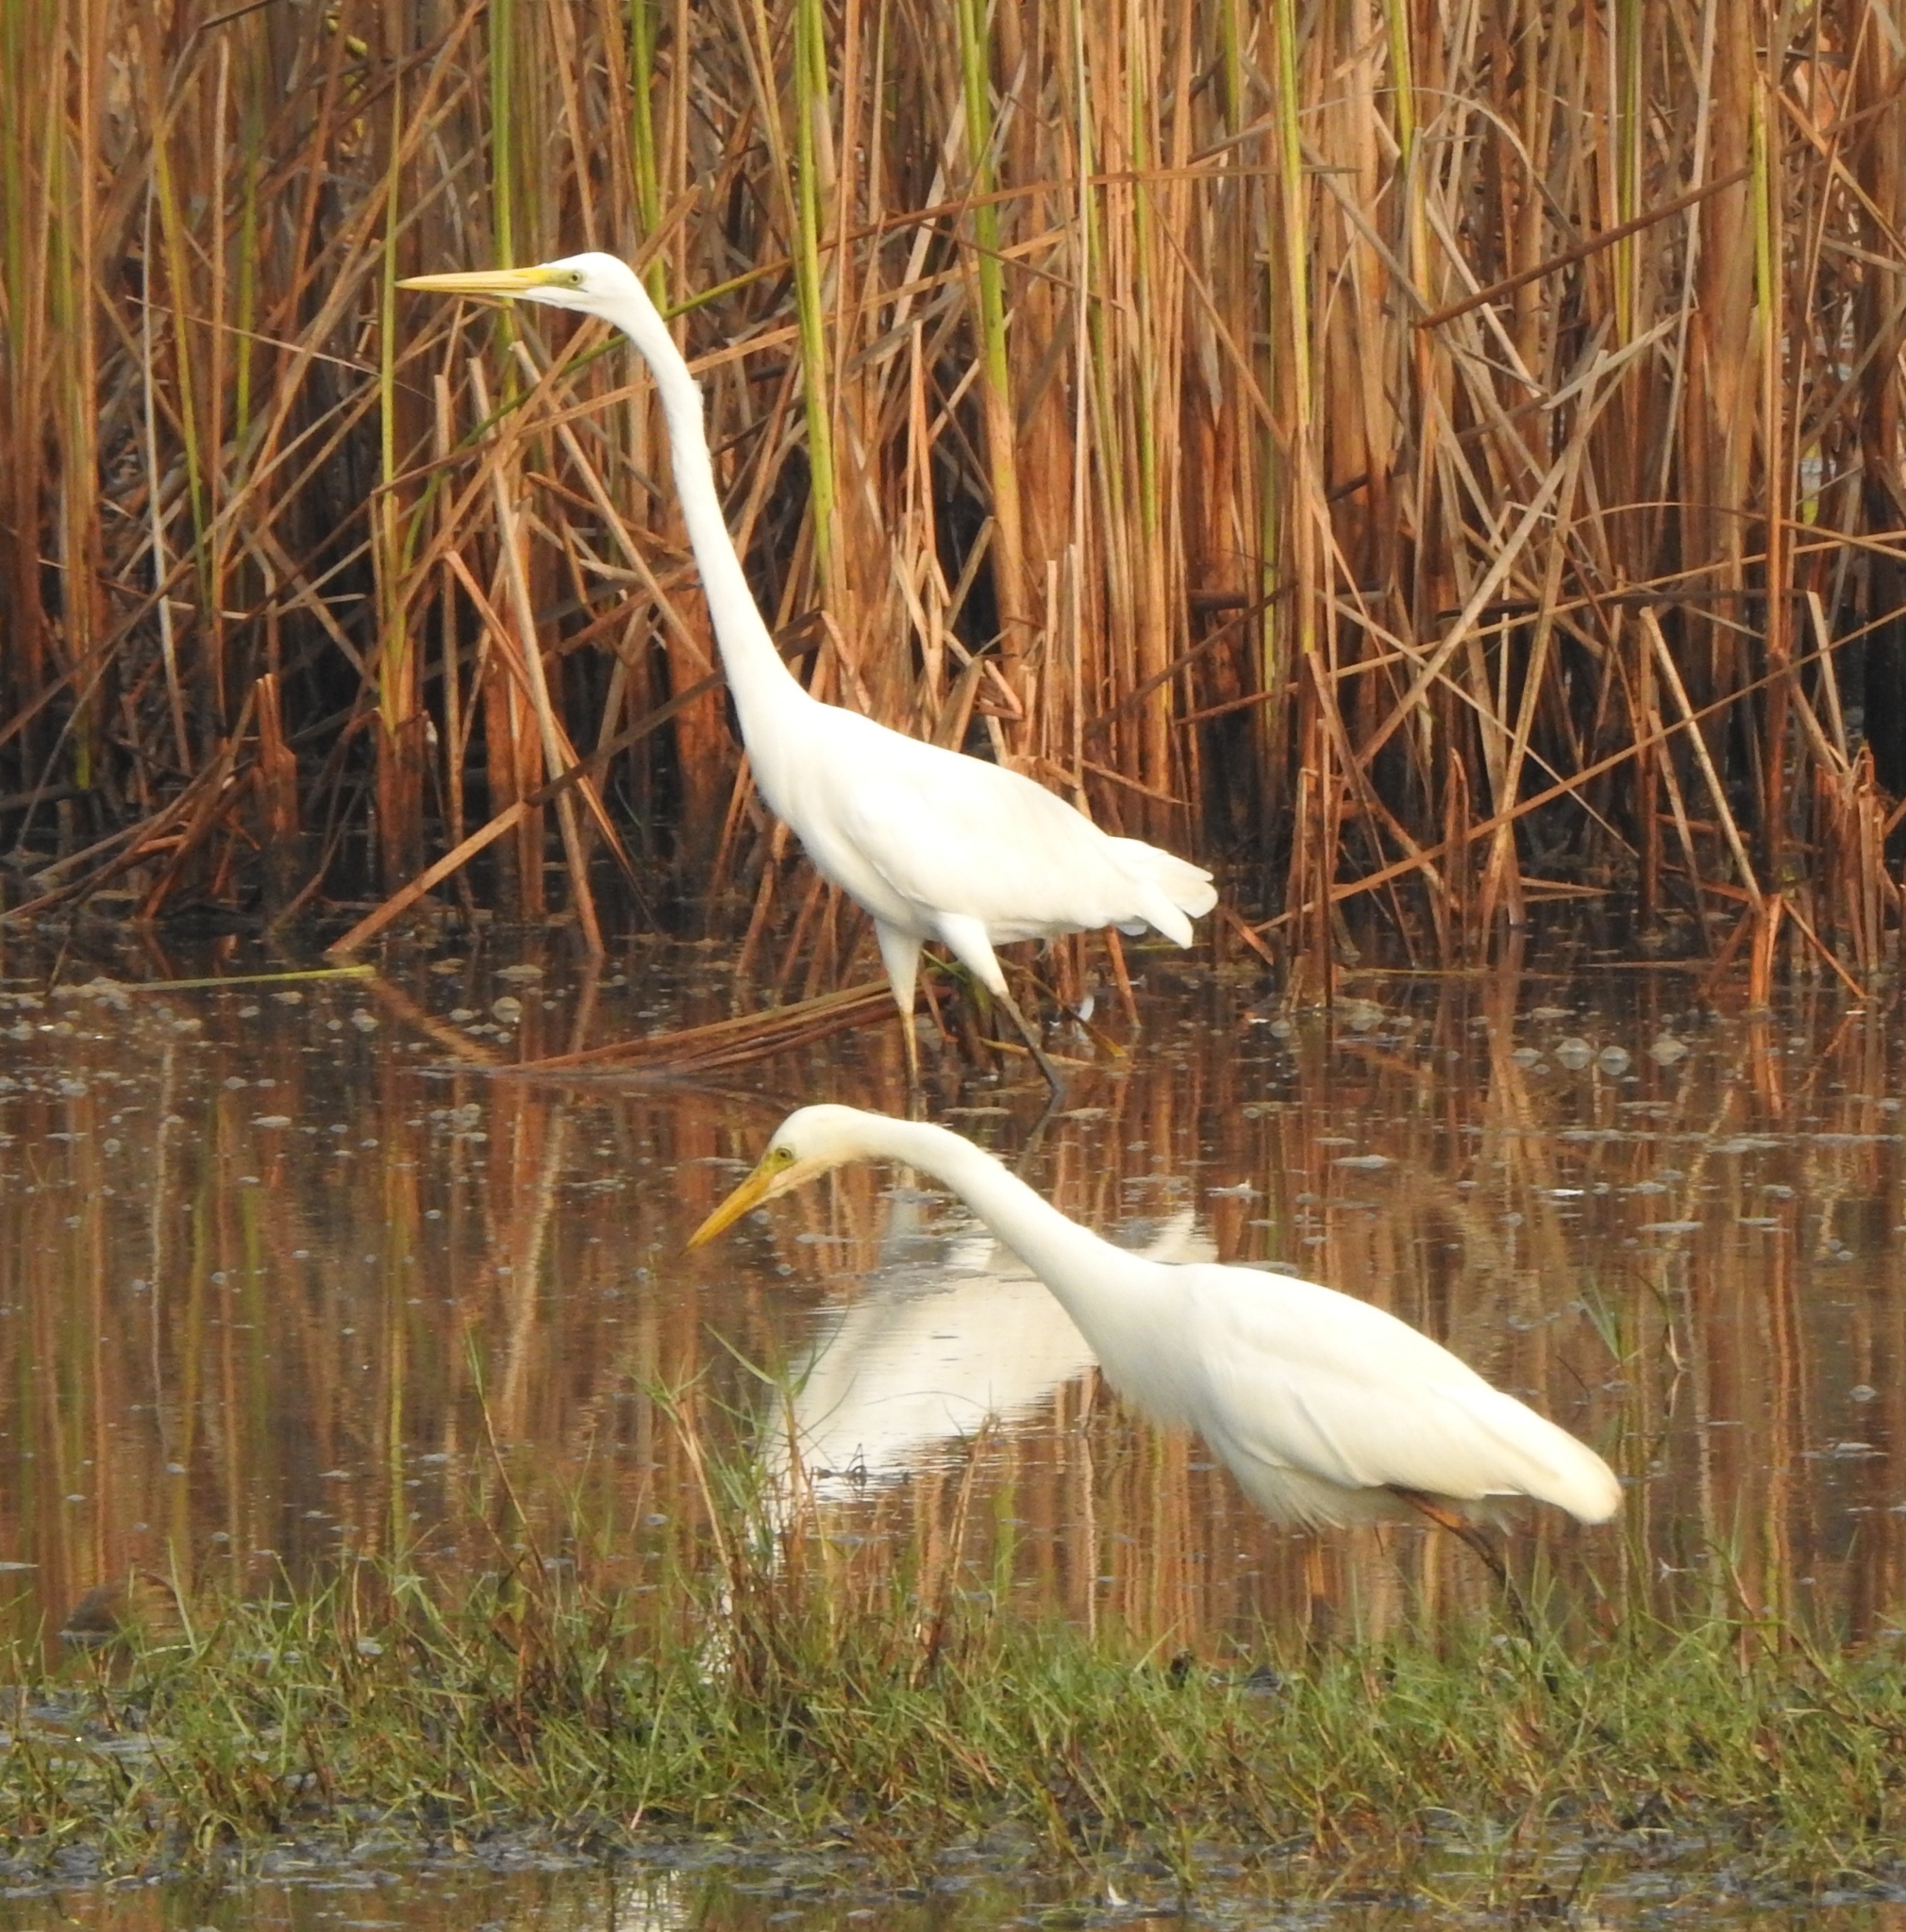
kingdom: Animalia
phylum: Chordata
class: Aves
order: Pelecaniformes
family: Ardeidae
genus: Egretta
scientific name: Egretta intermedia
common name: Intermediate egret
